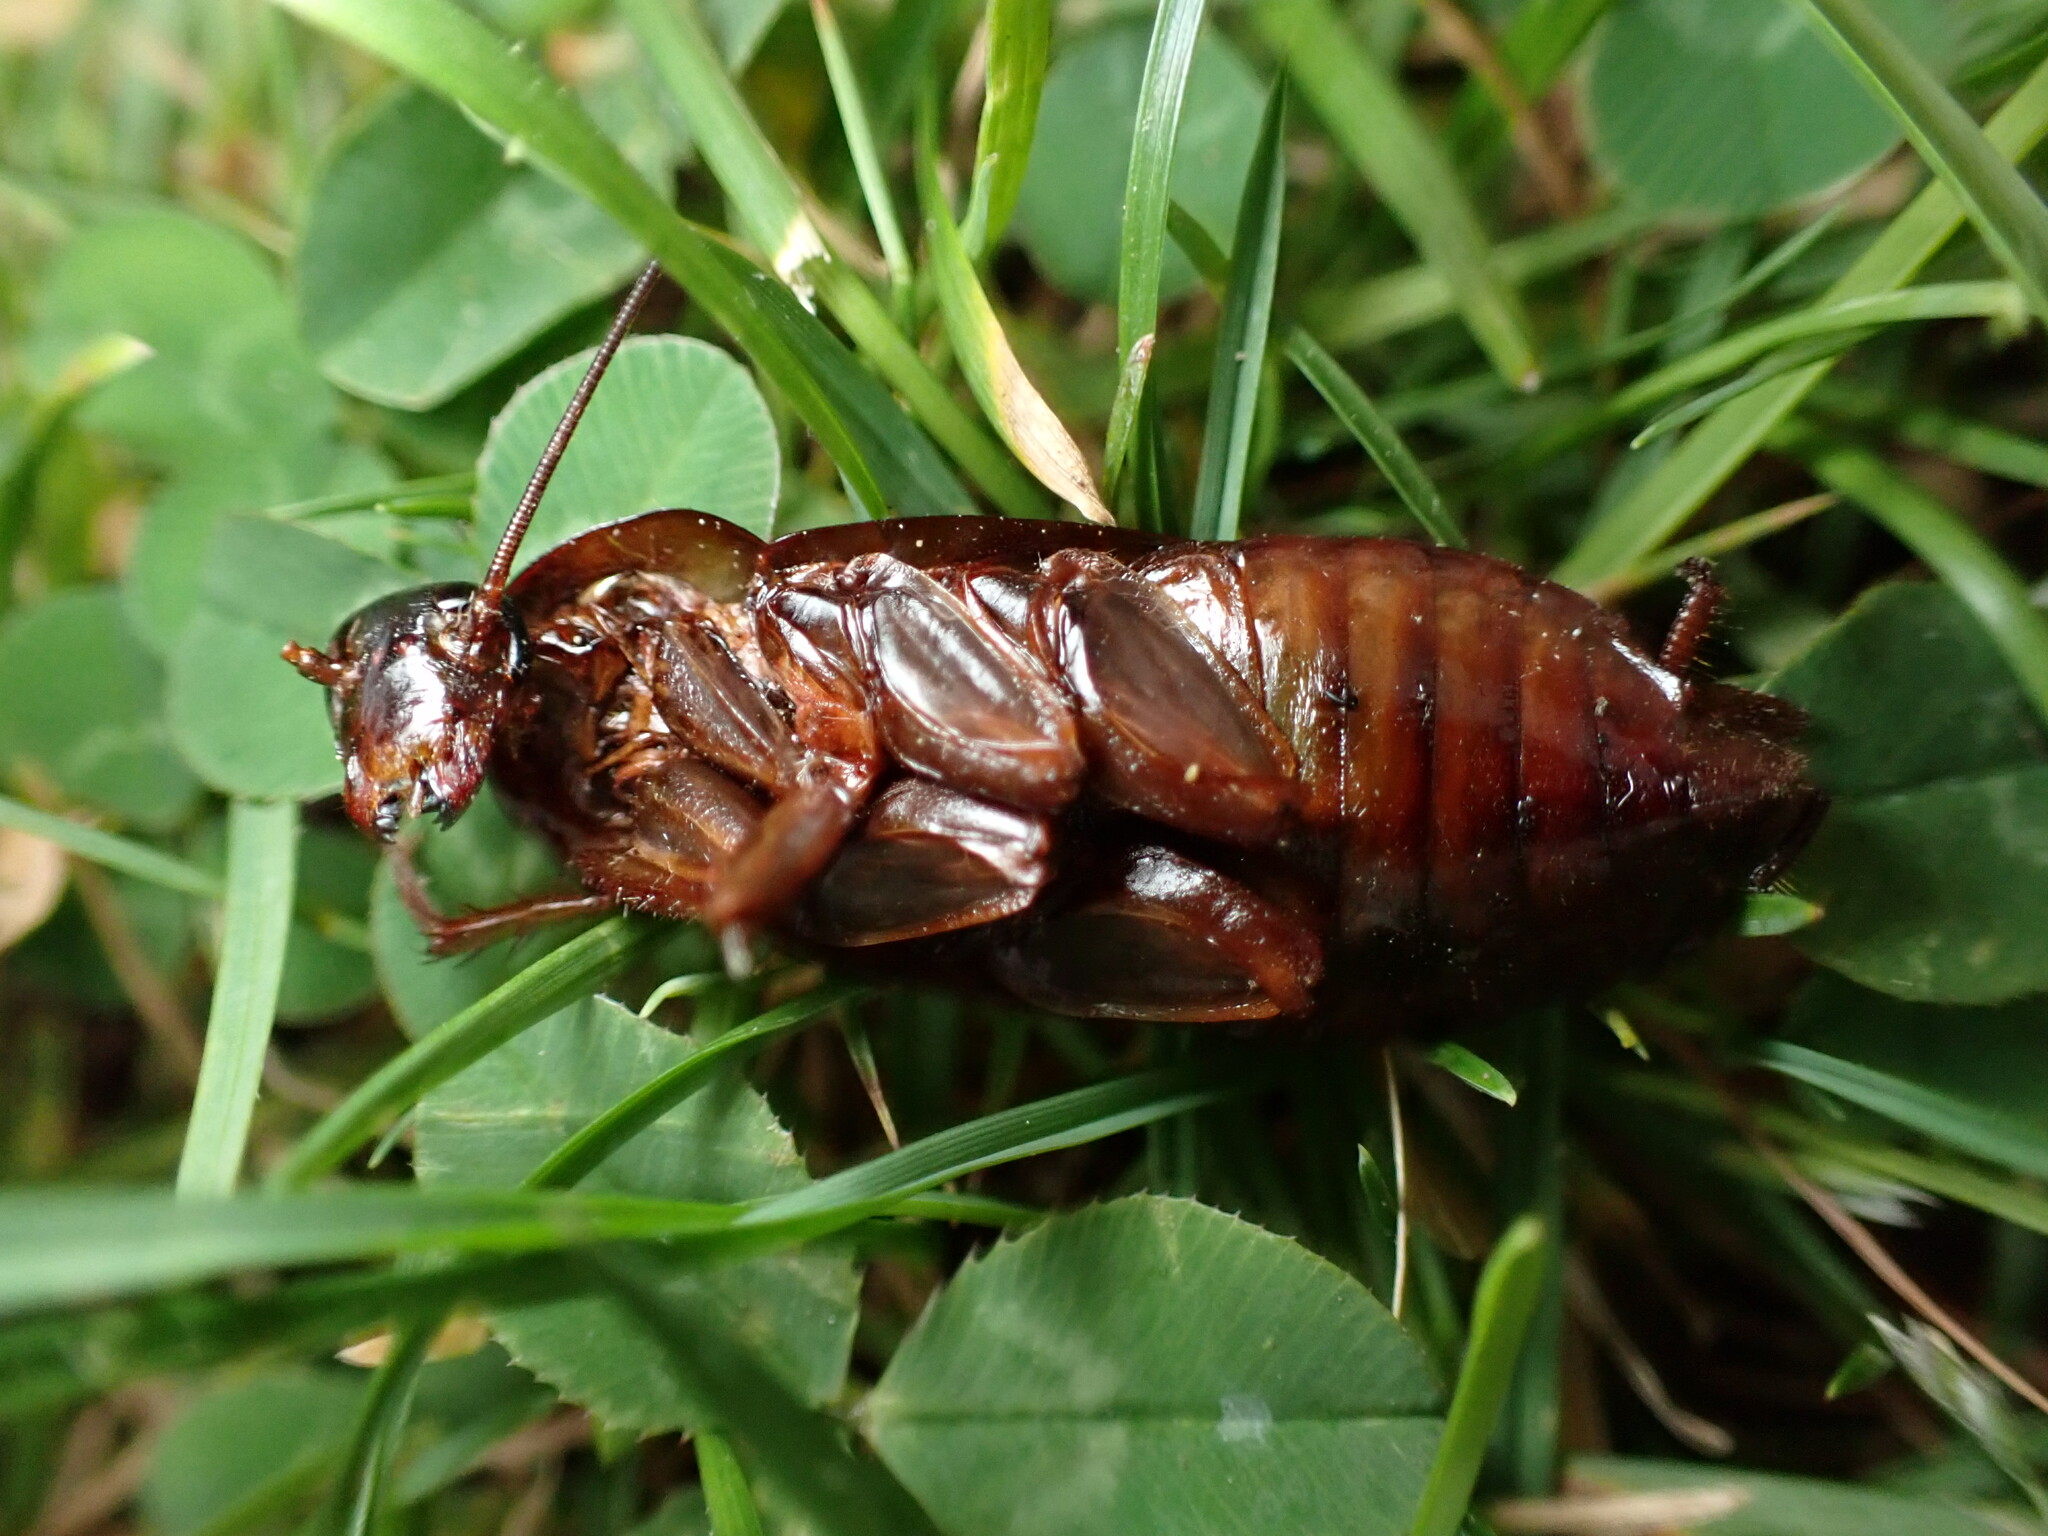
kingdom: Animalia
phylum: Arthropoda
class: Insecta
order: Blattodea
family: Blattidae
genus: Periplaneta
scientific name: Periplaneta americana
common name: American cockroach
